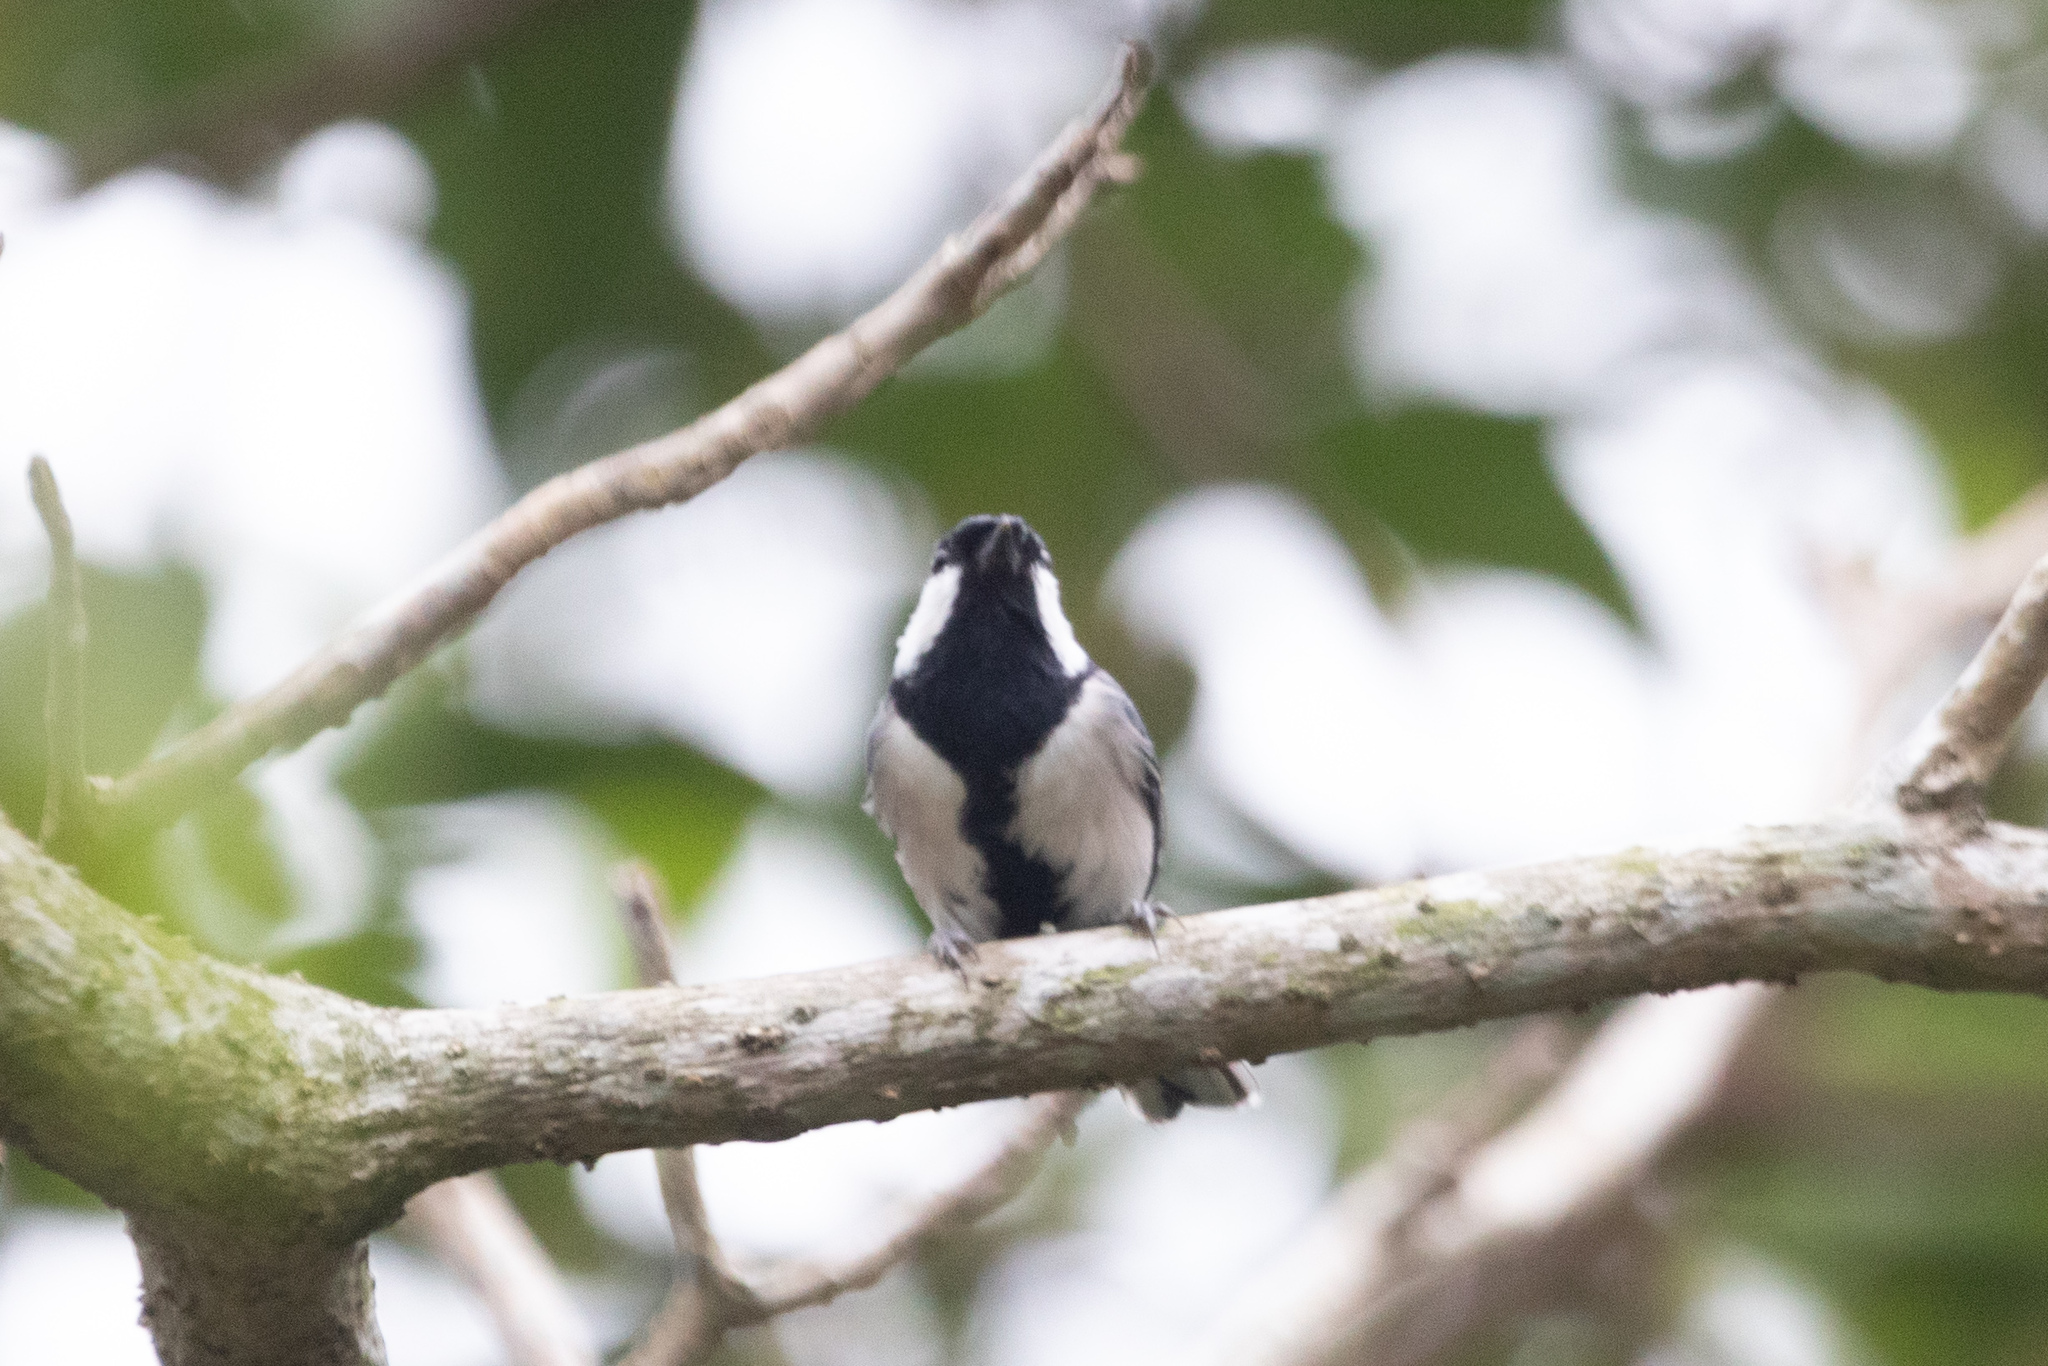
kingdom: Animalia
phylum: Chordata
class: Aves
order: Passeriformes
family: Paridae
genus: Parus
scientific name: Parus minor
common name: Japanese tit
